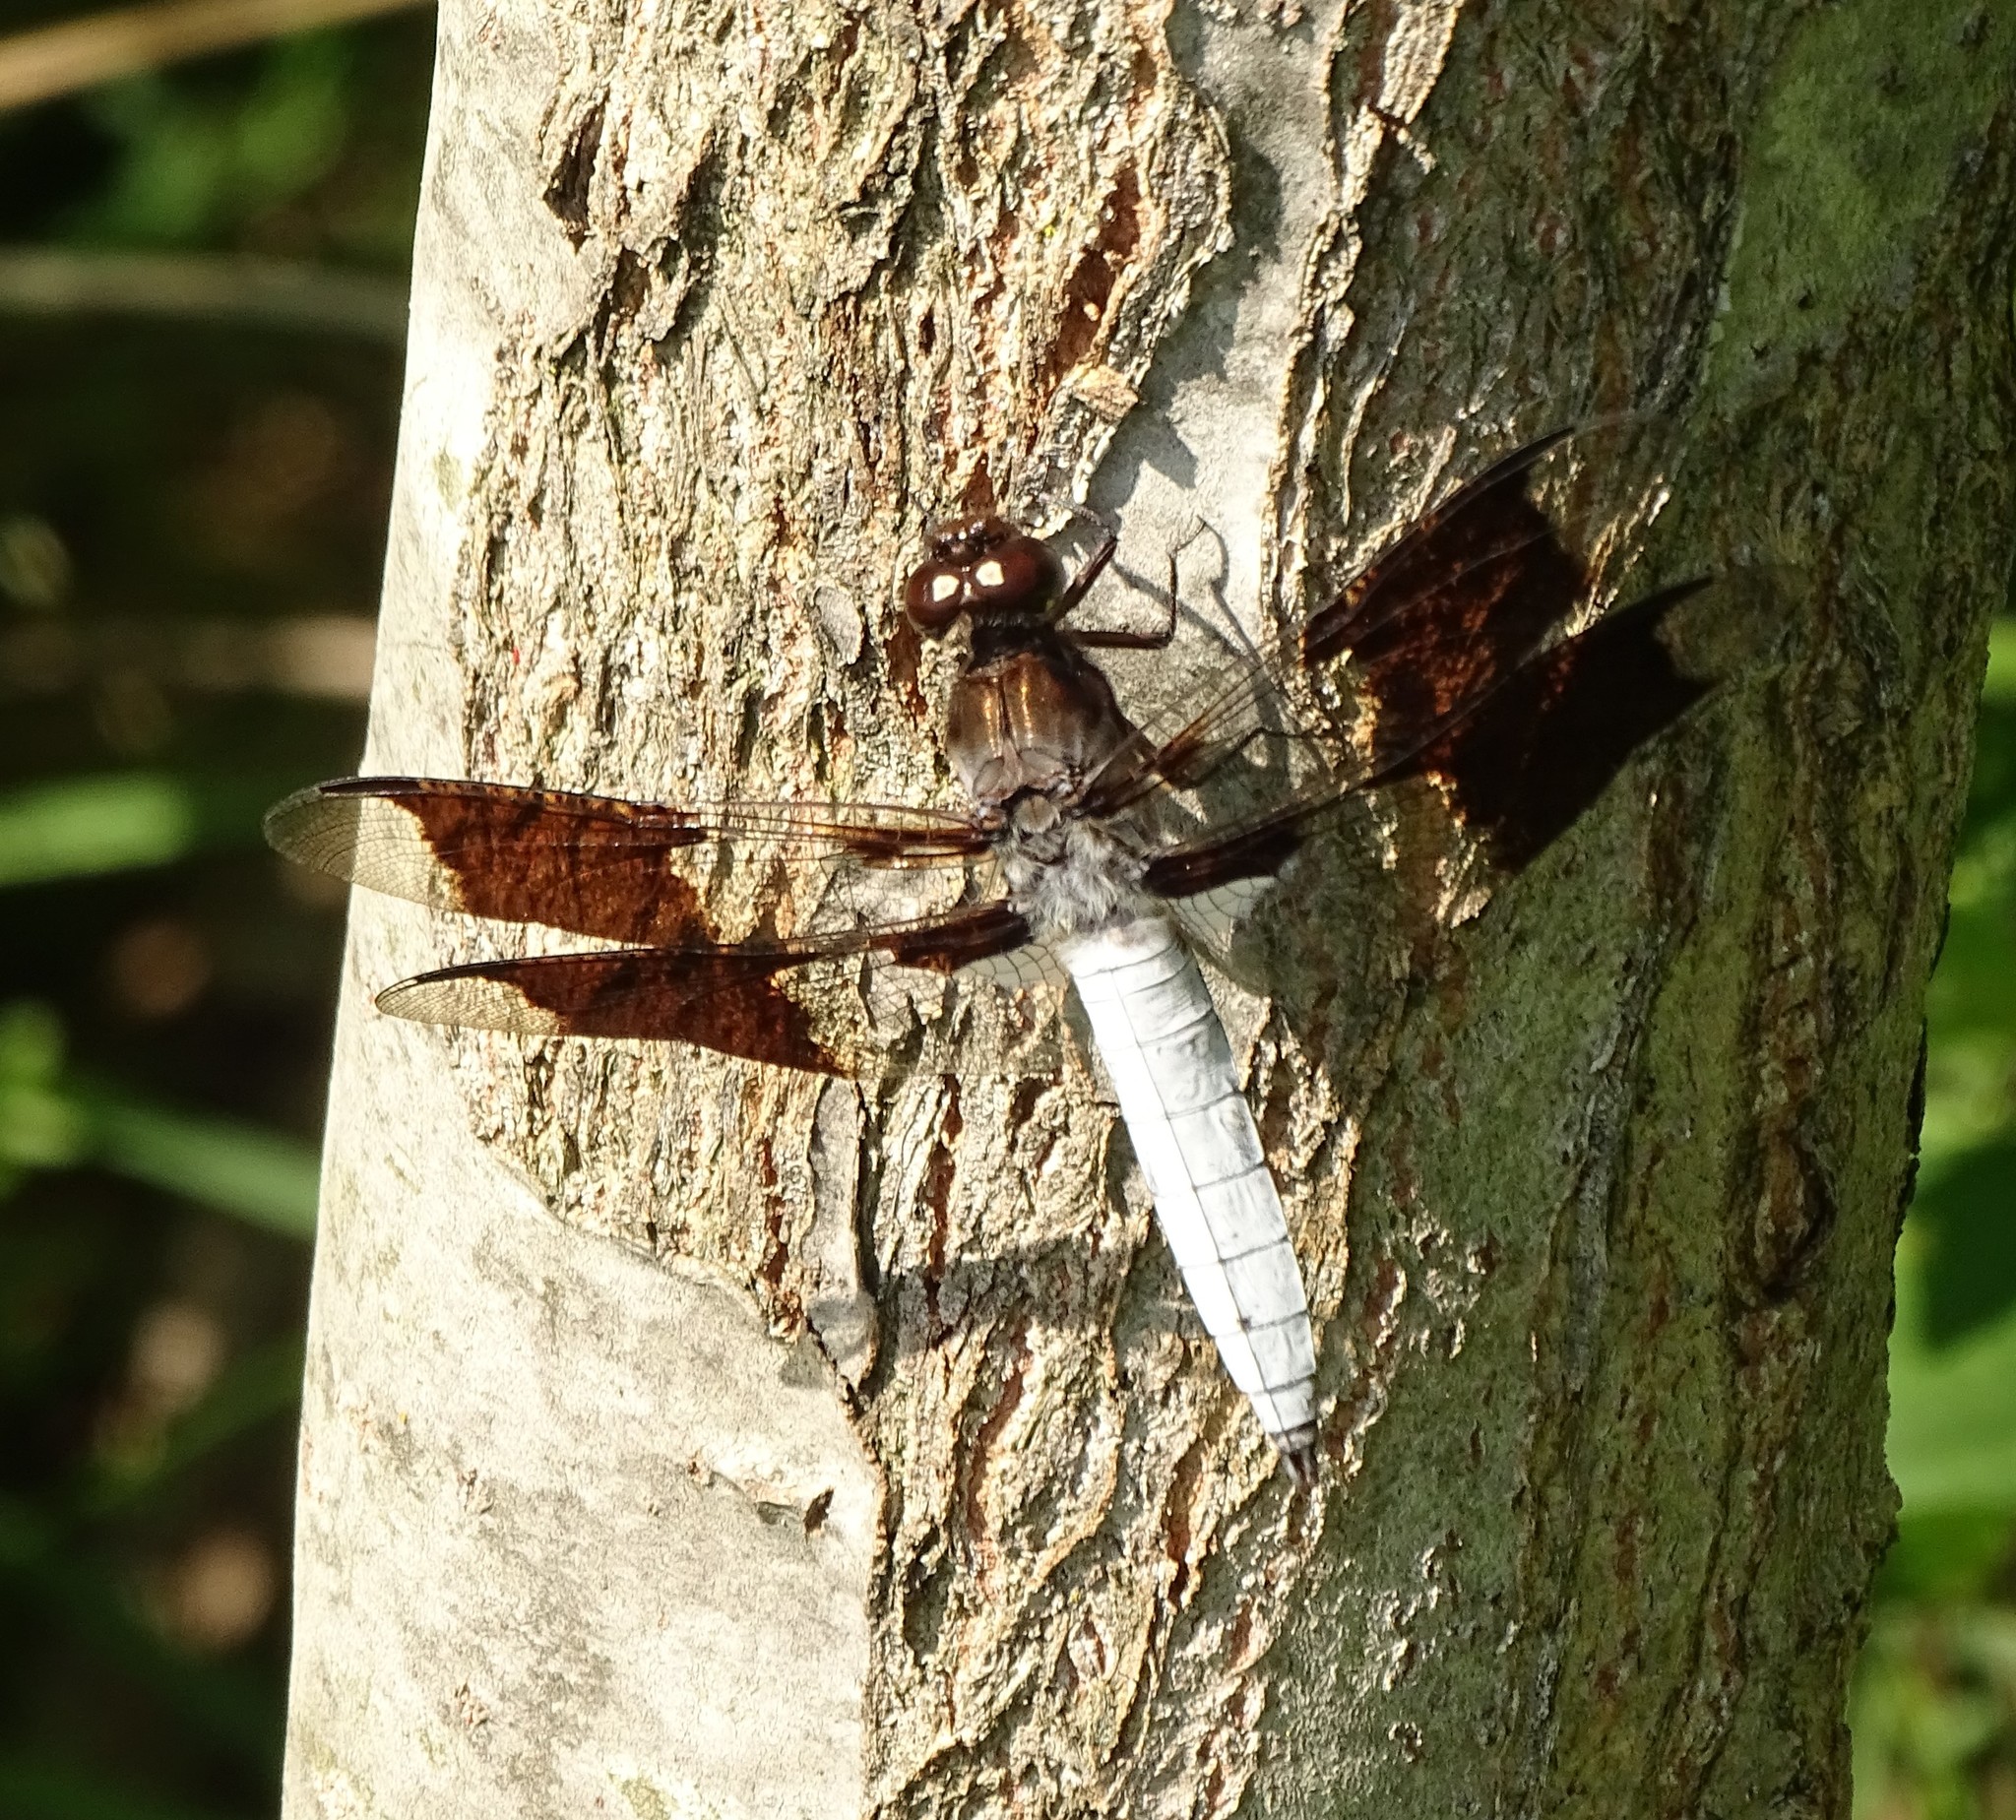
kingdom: Animalia
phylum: Arthropoda
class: Insecta
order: Odonata
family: Libellulidae
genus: Plathemis
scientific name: Plathemis lydia
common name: Common whitetail
